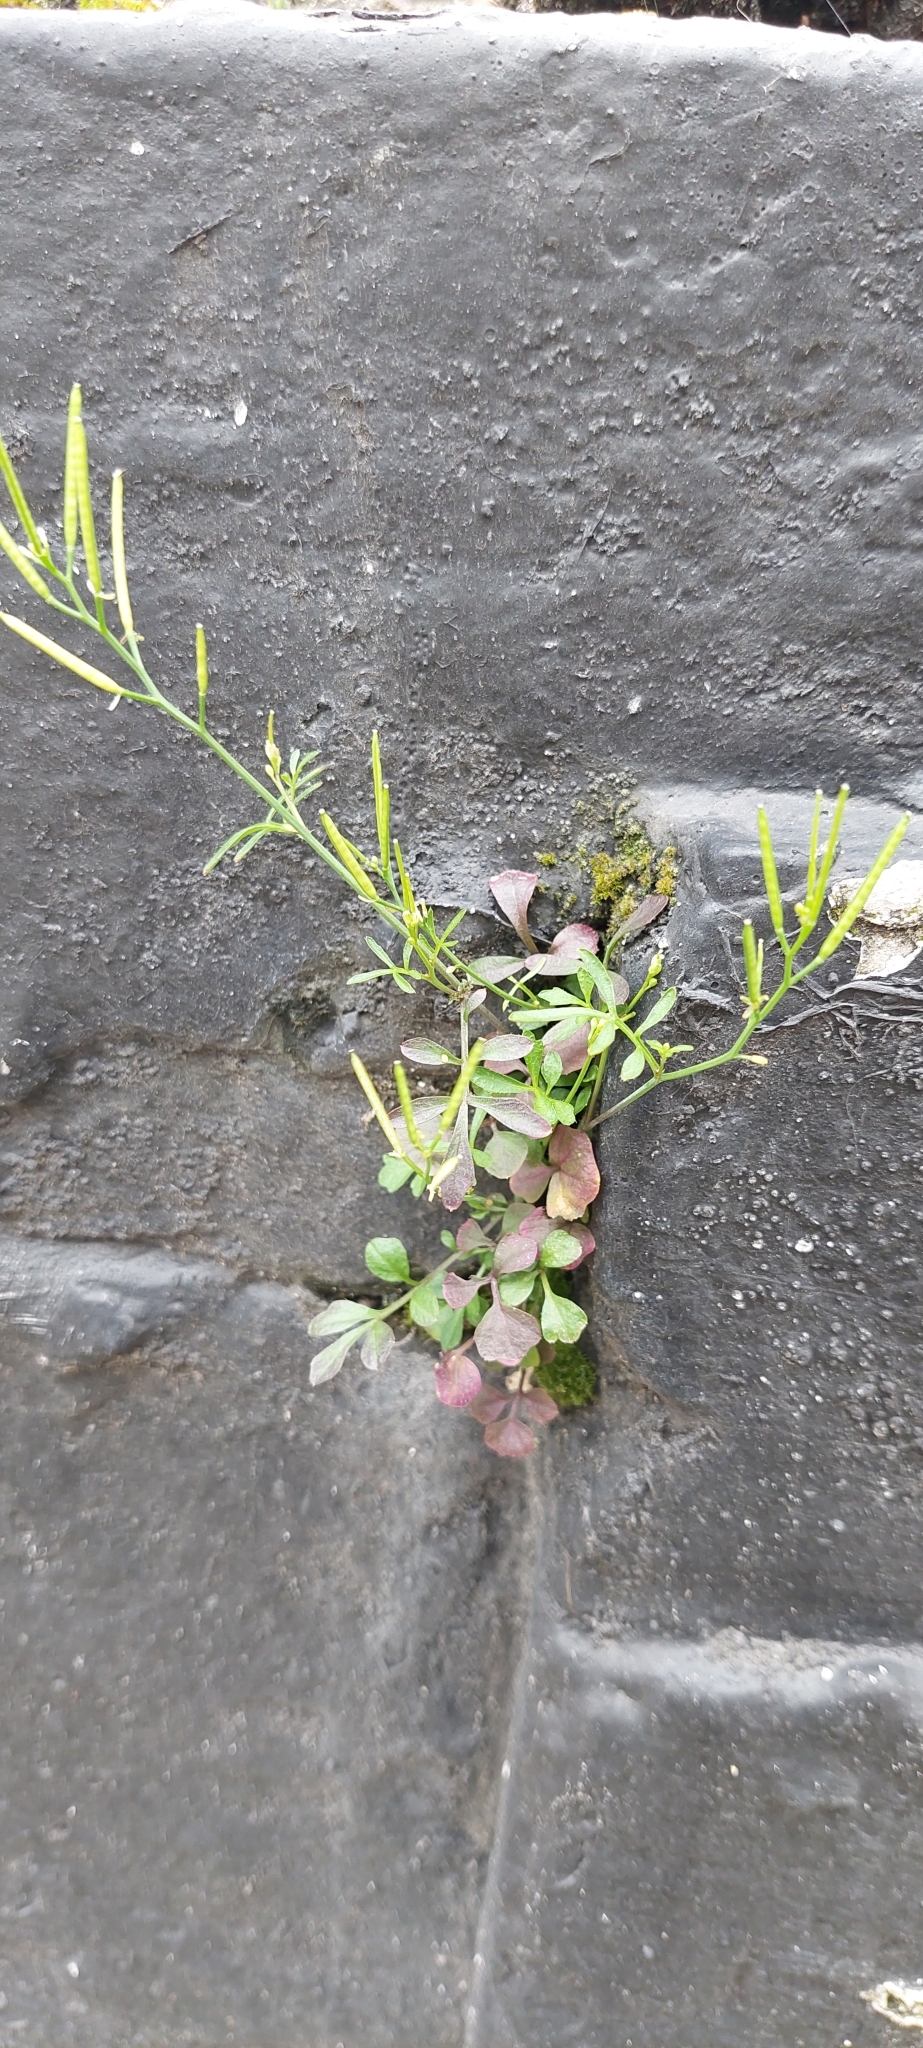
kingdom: Plantae
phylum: Tracheophyta
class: Magnoliopsida
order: Brassicales
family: Brassicaceae
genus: Cardamine
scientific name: Cardamine hirsuta
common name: Hairy bittercress
